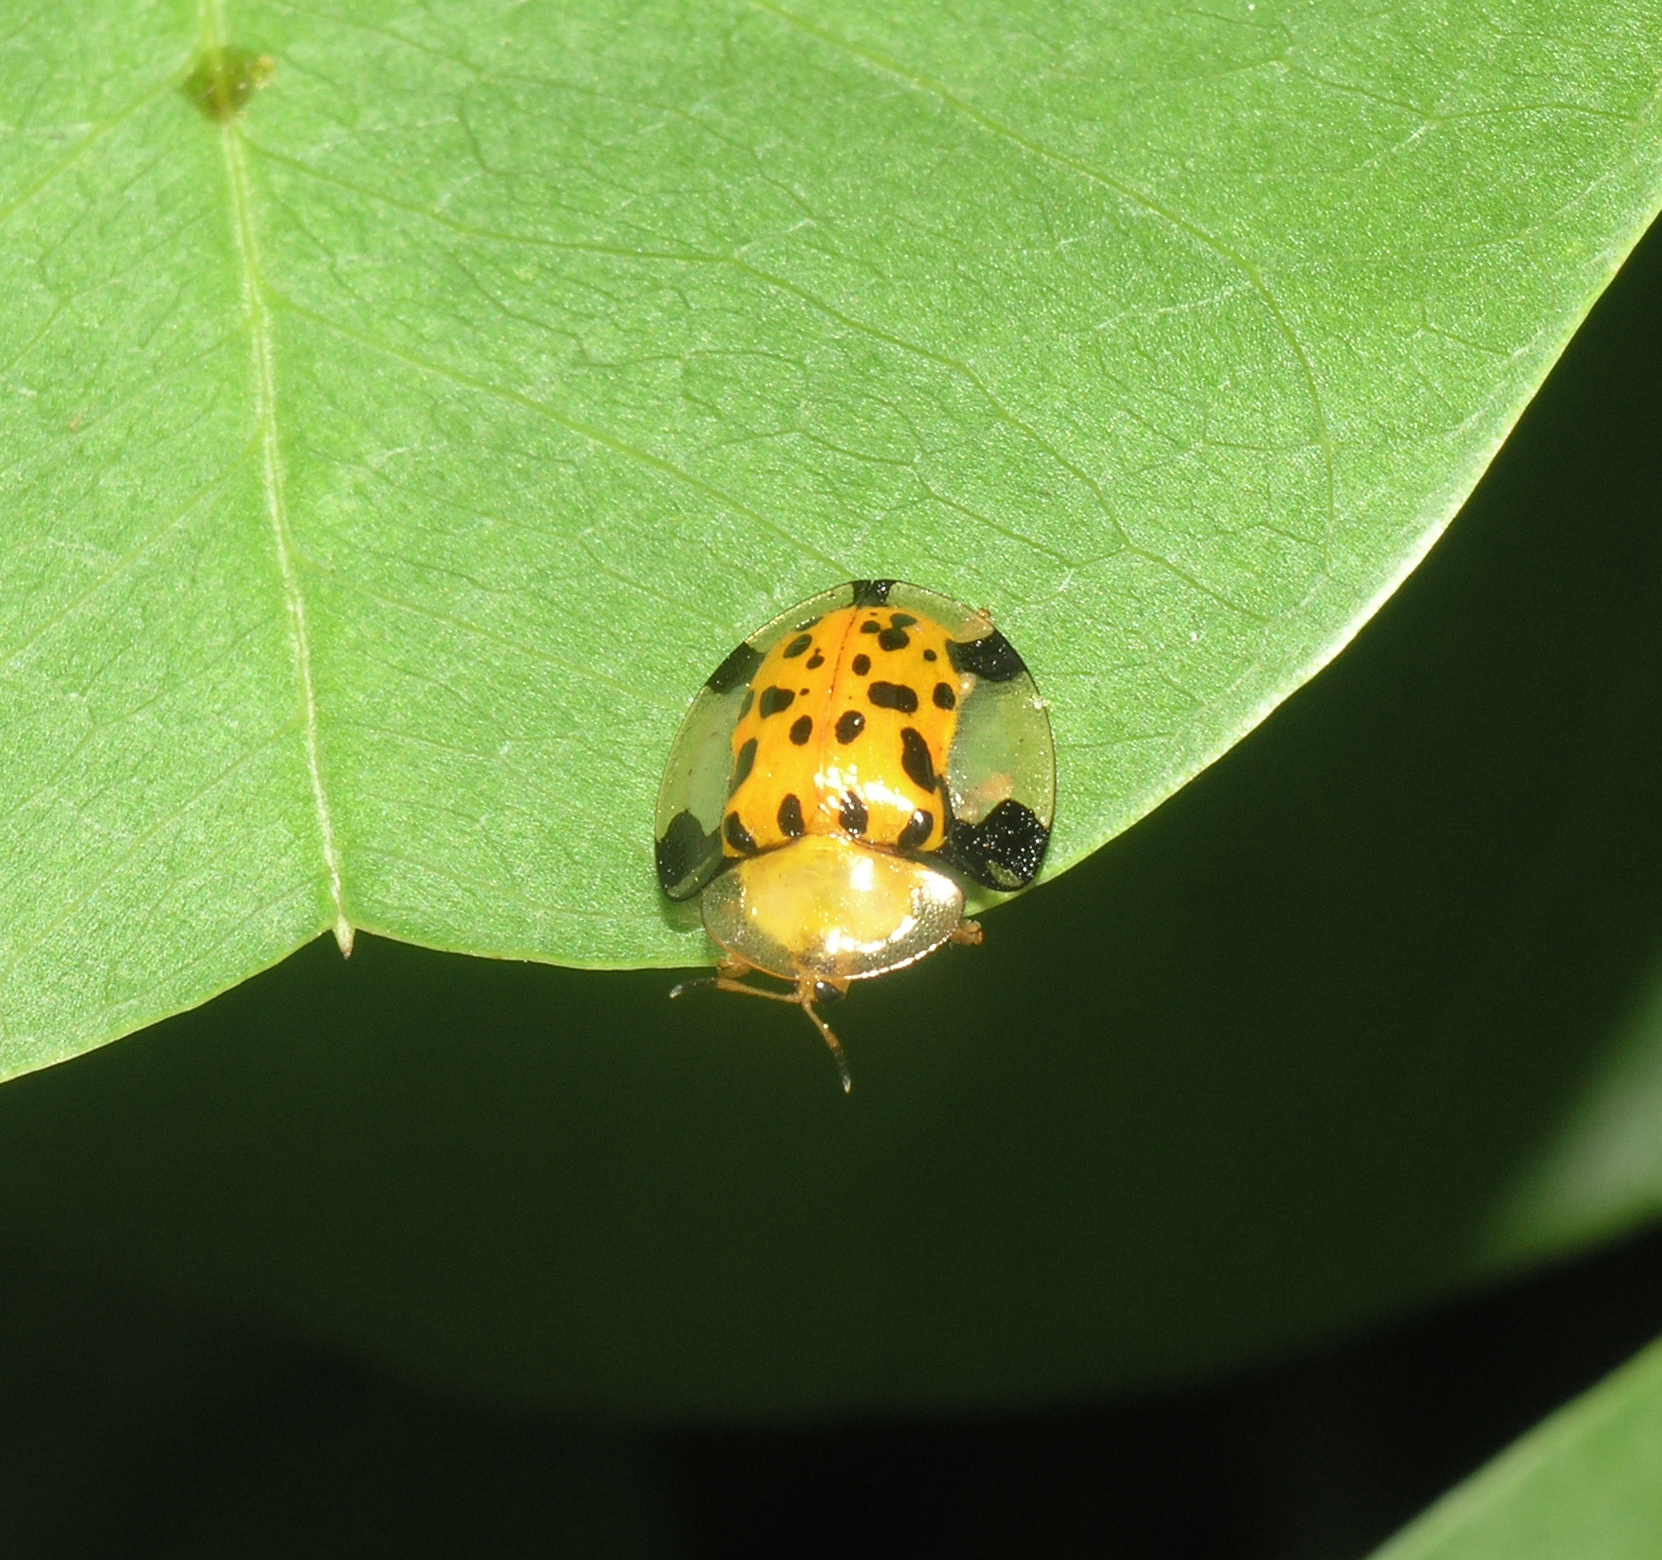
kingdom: Animalia
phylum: Arthropoda
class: Insecta
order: Coleoptera
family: Chrysomelidae
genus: Aspidimorpha
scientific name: Aspidimorpha miliaris
